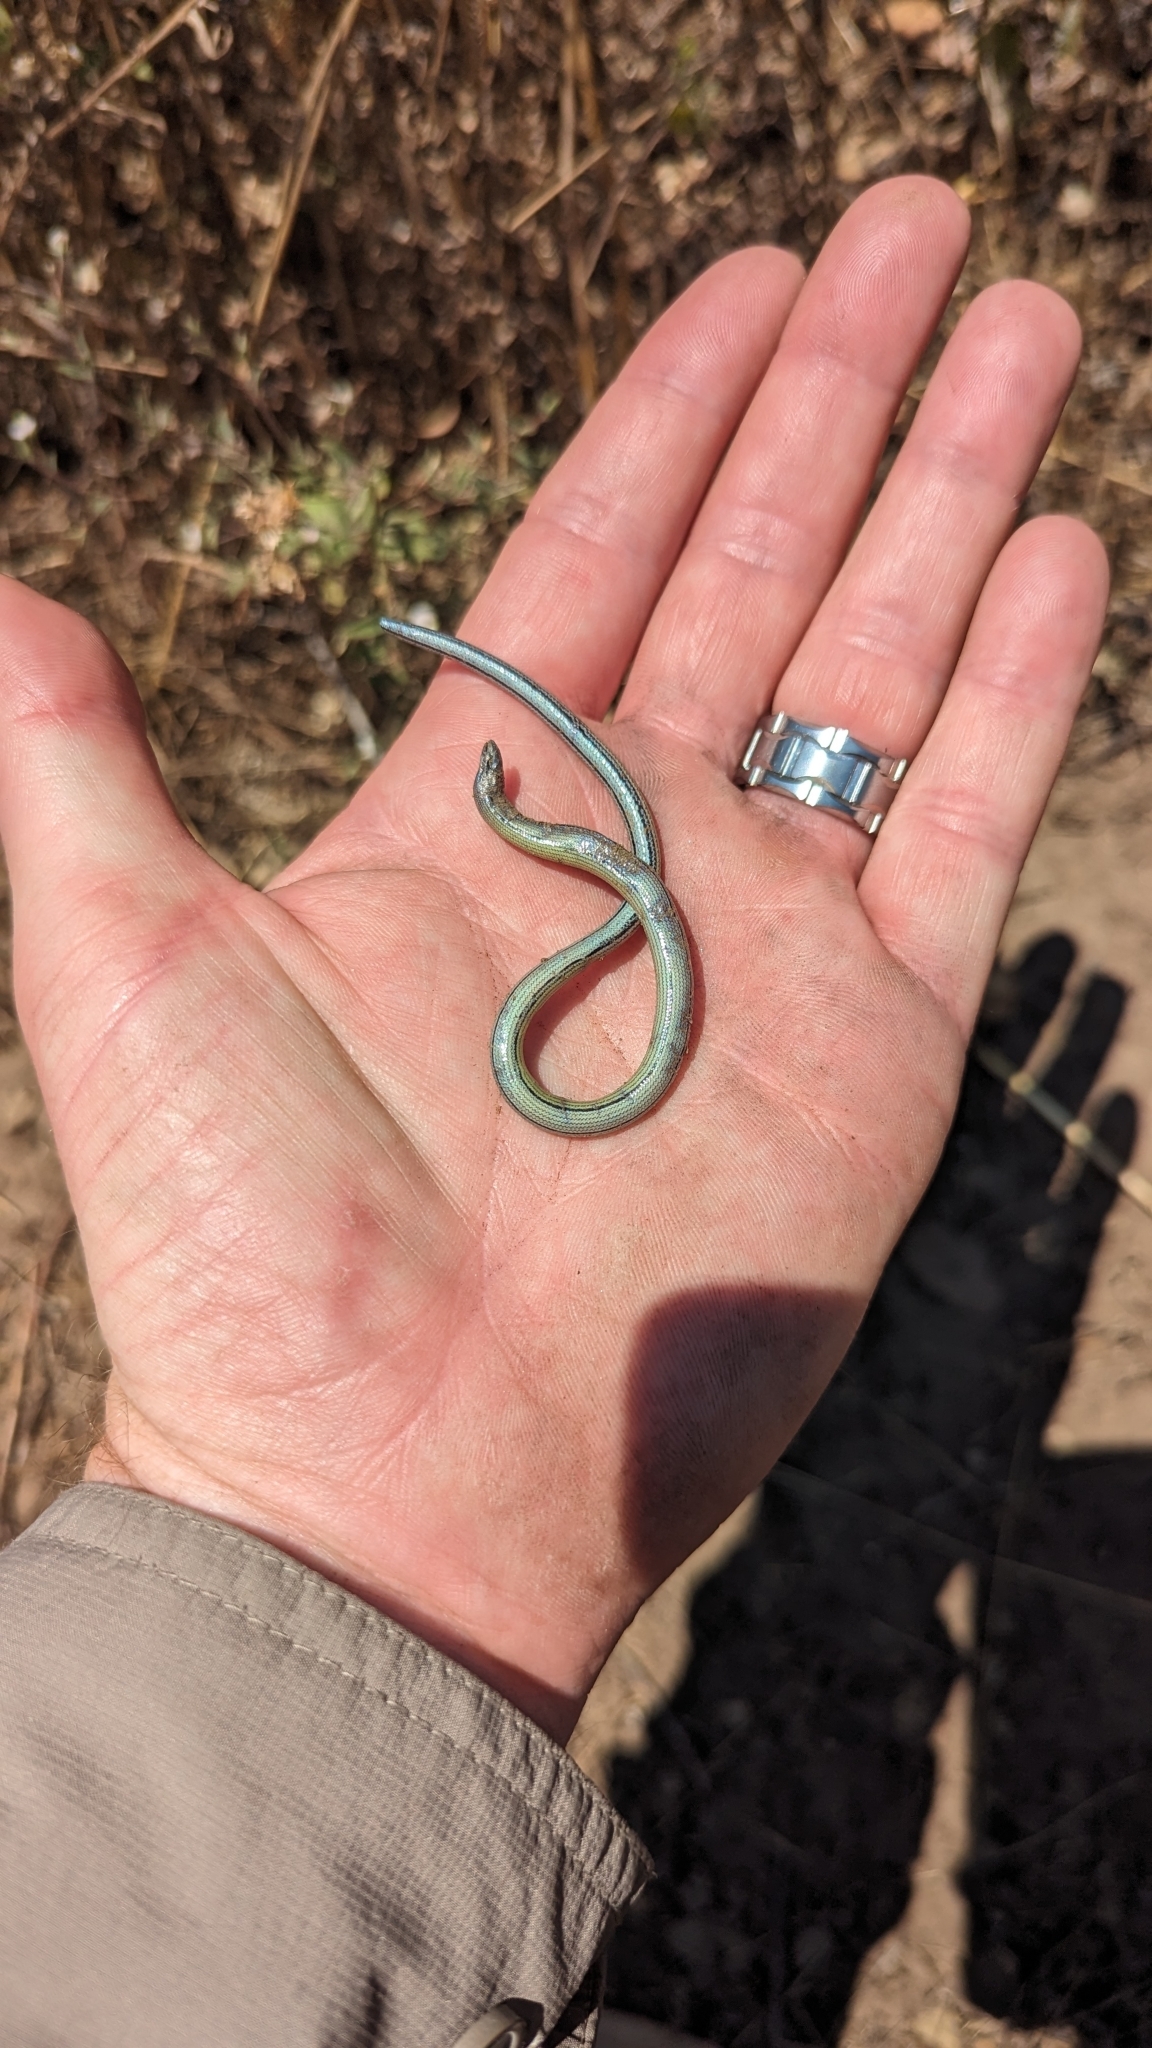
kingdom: Animalia
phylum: Chordata
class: Squamata
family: Anguidae
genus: Anniella
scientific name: Anniella stebbinsi
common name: Southern california legless lizard
